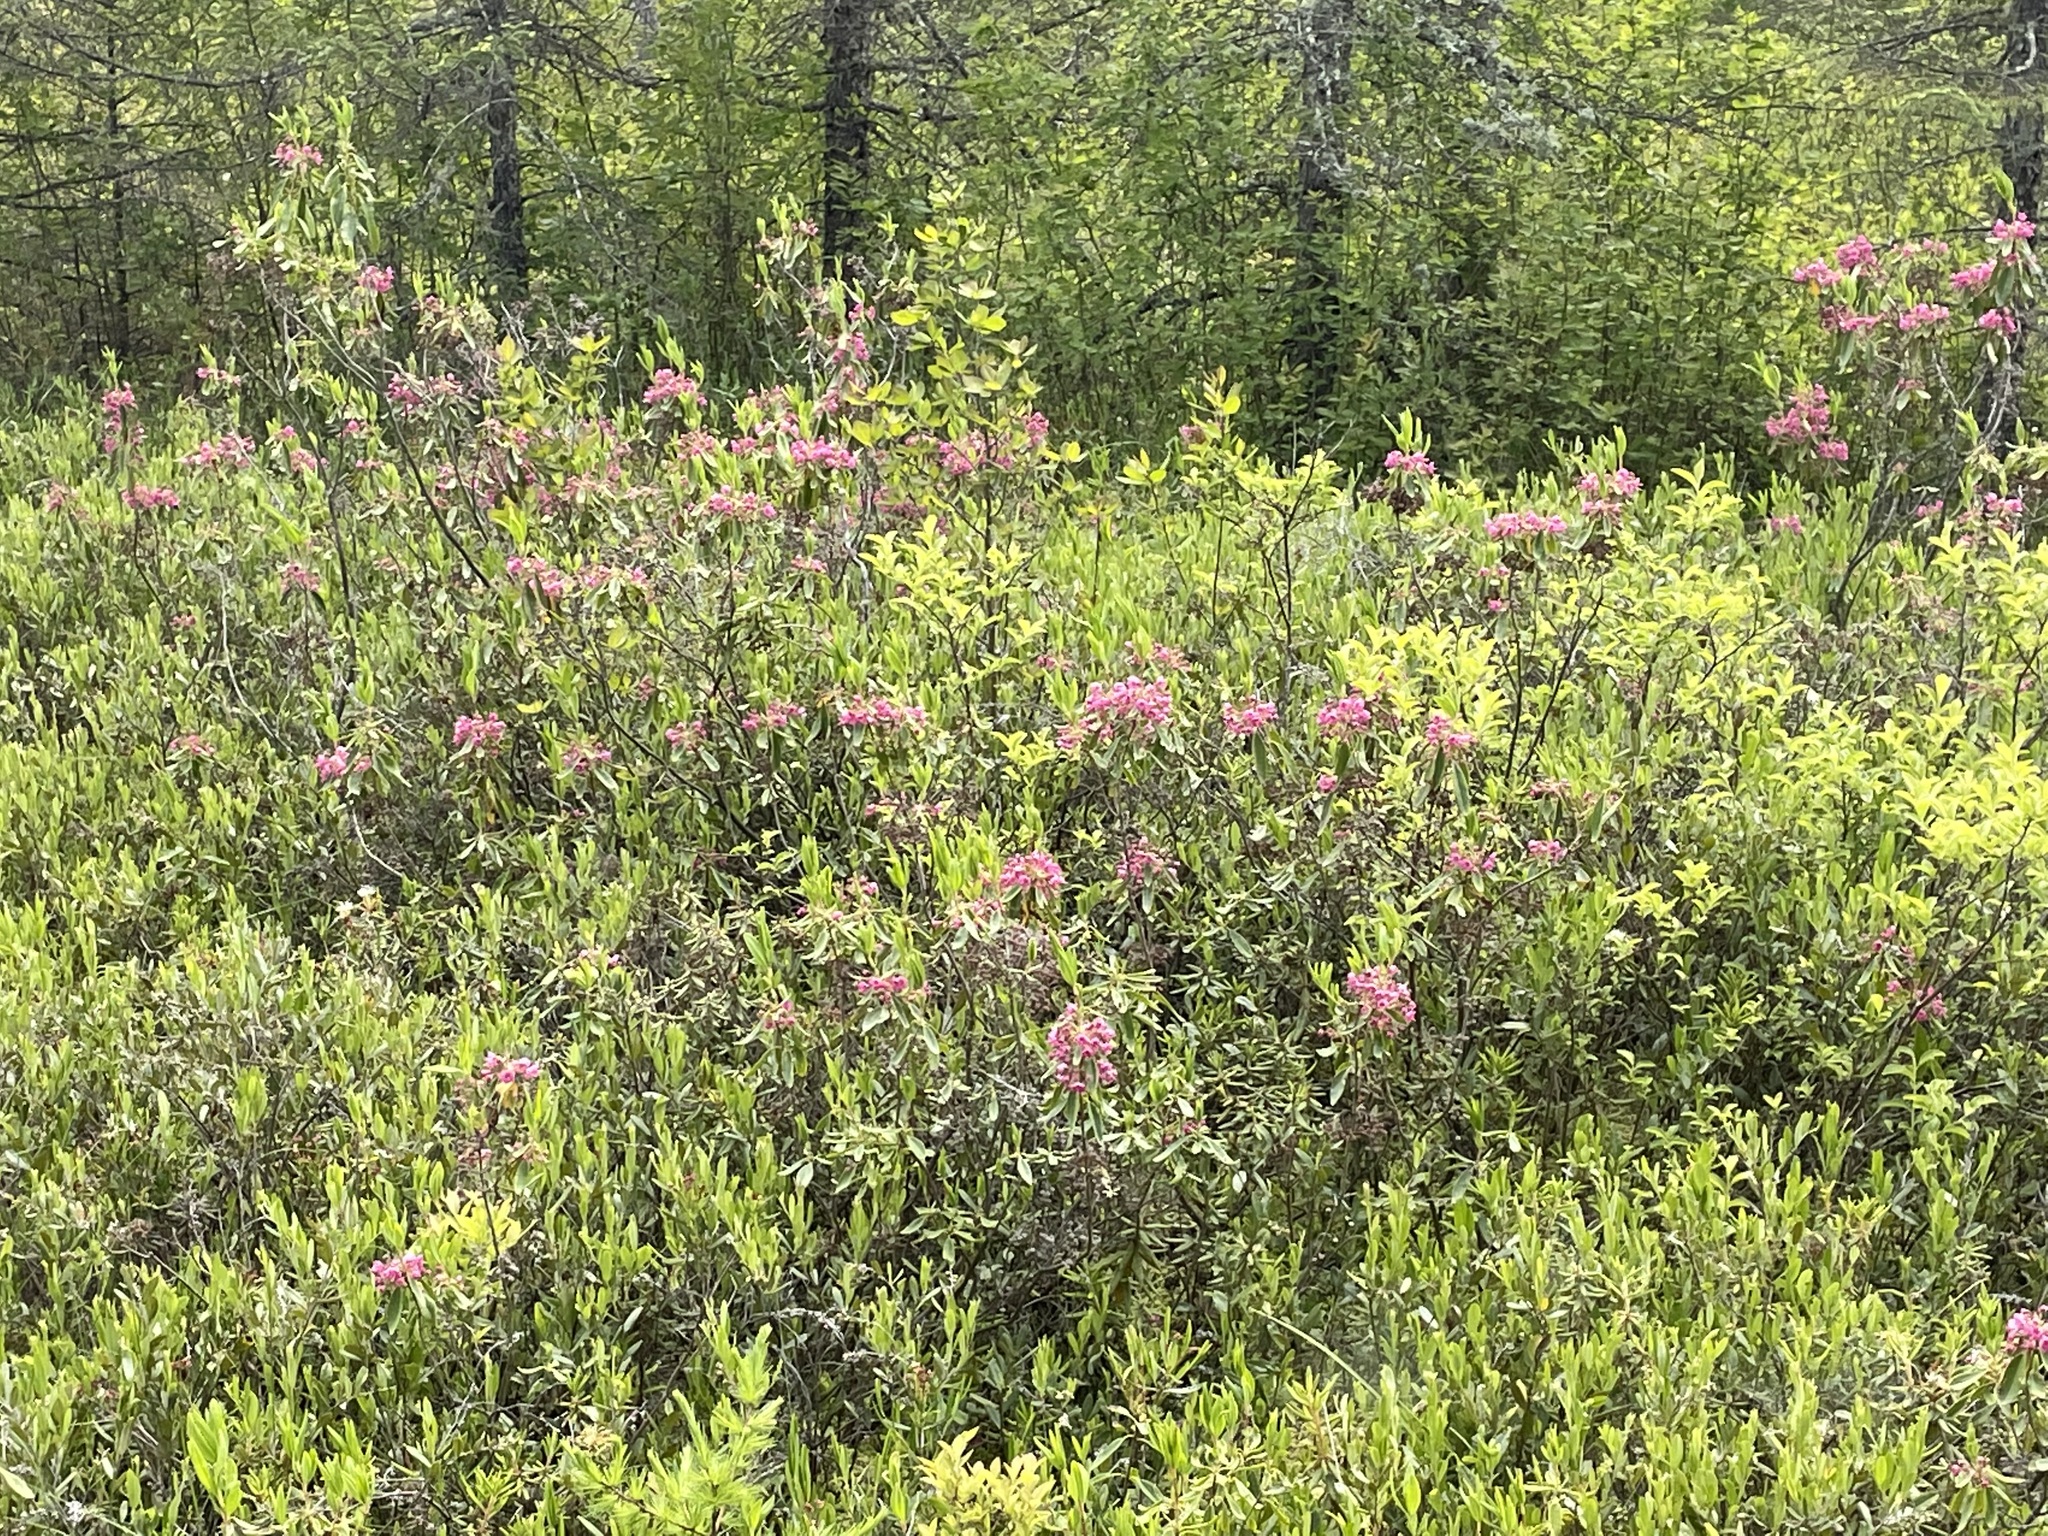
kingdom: Plantae
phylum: Tracheophyta
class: Magnoliopsida
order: Ericales
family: Ericaceae
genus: Kalmia
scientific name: Kalmia angustifolia
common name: Sheep-laurel
